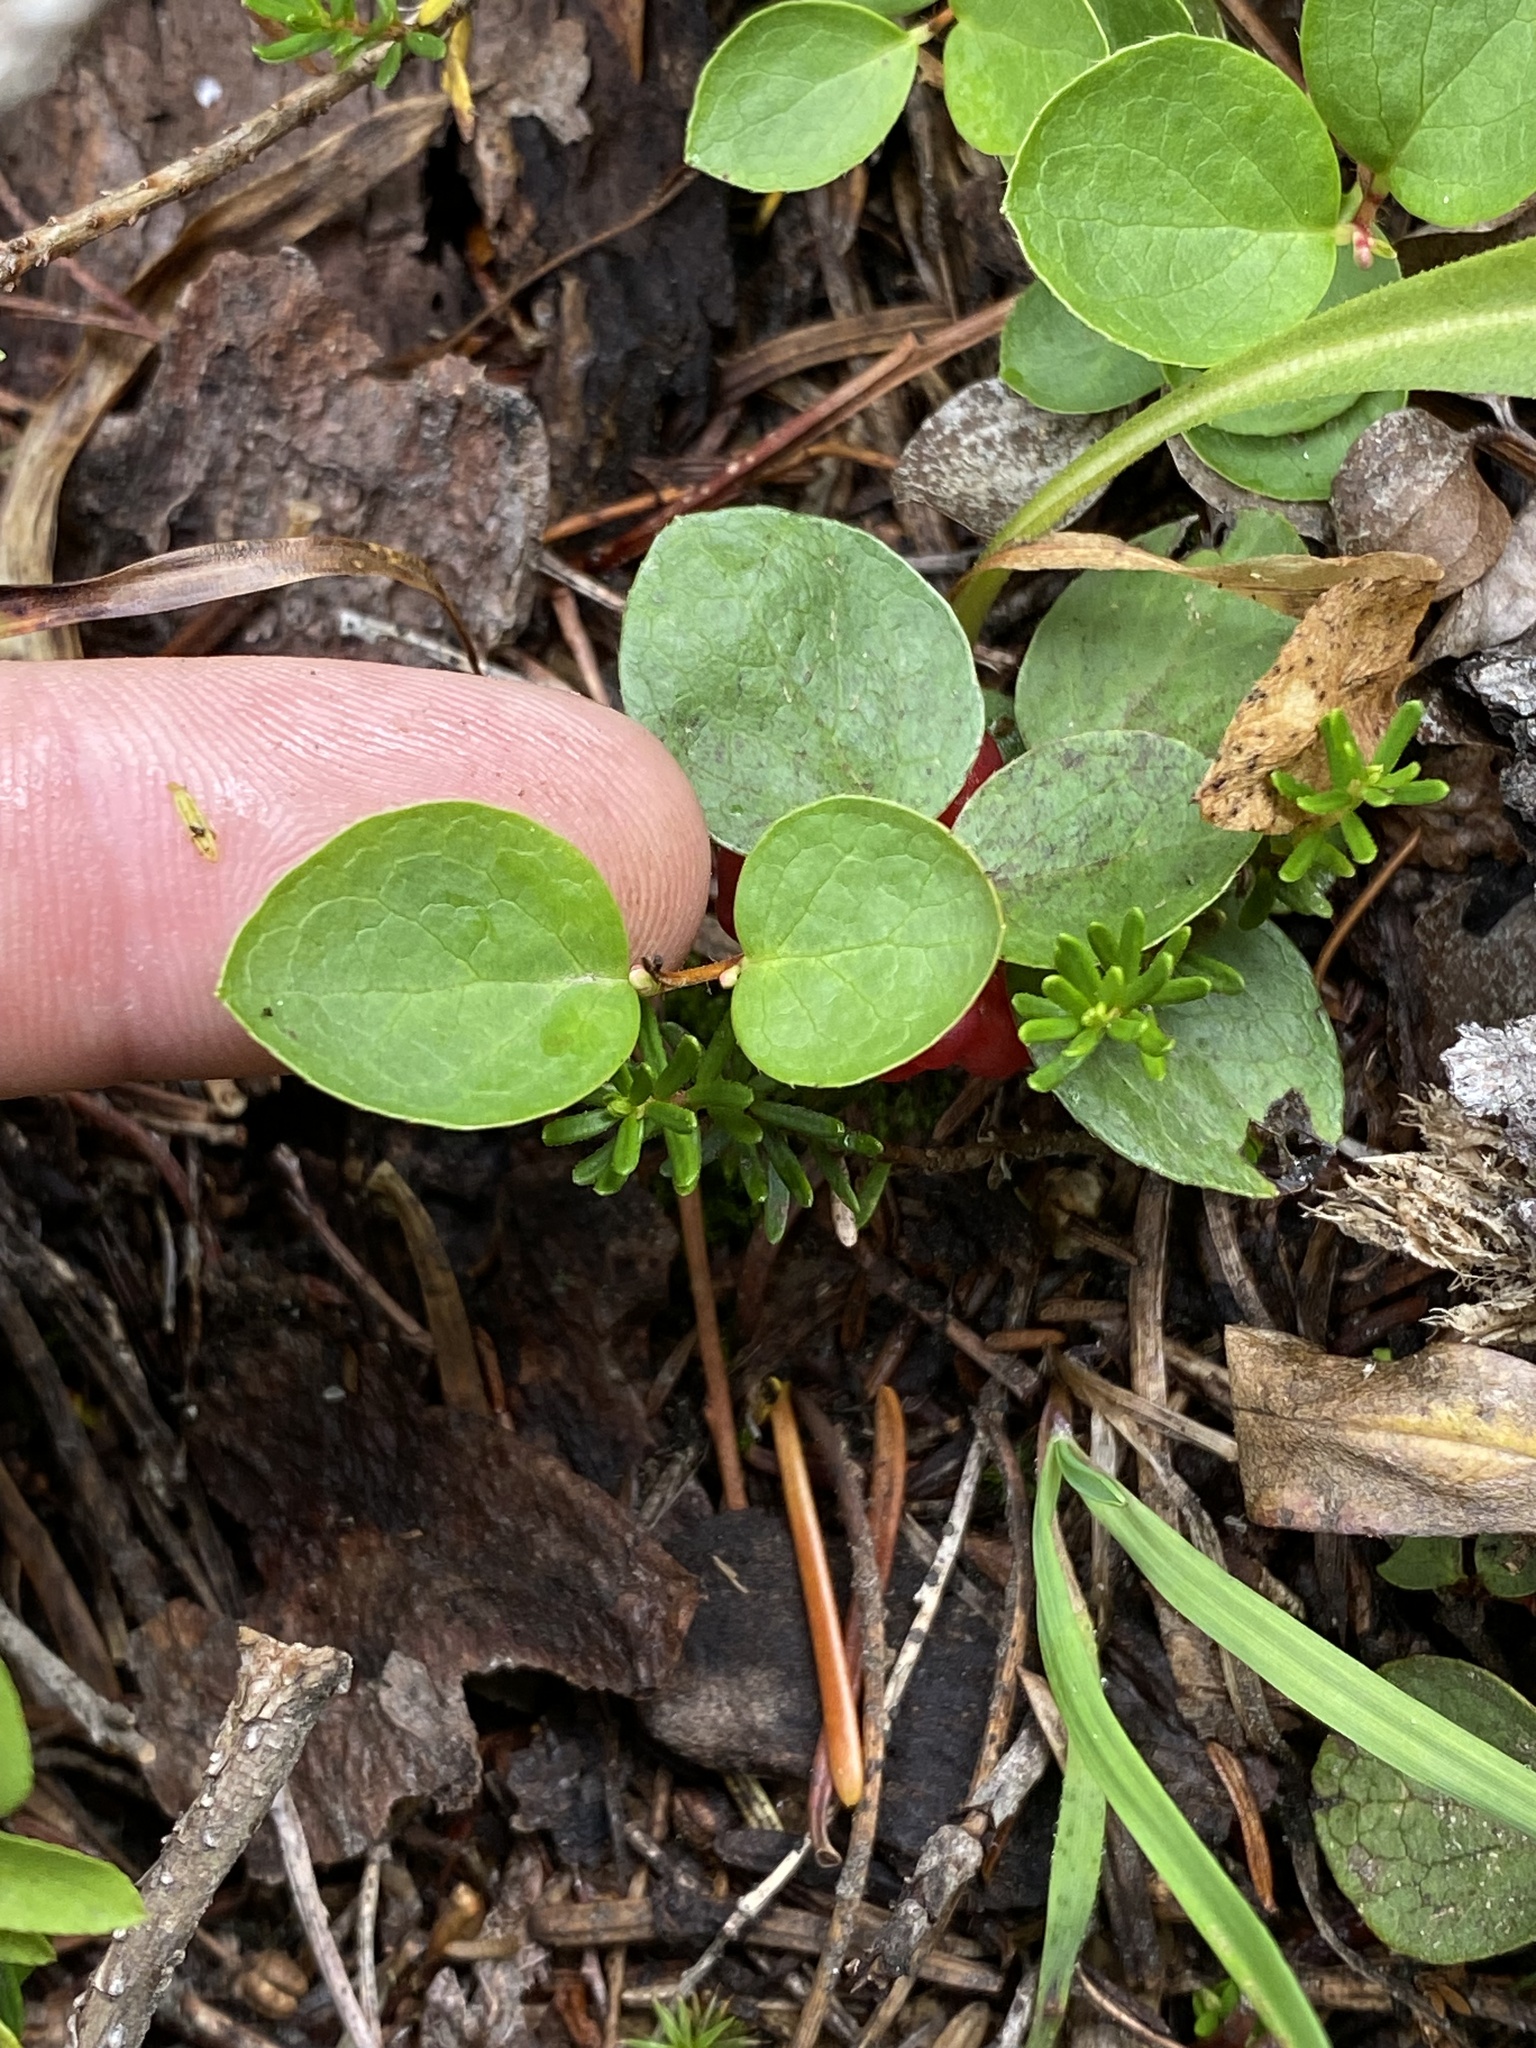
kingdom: Plantae
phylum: Tracheophyta
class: Magnoliopsida
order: Ericales
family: Ericaceae
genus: Gaultheria
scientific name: Gaultheria humifusa
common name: Alpine wintergreen
